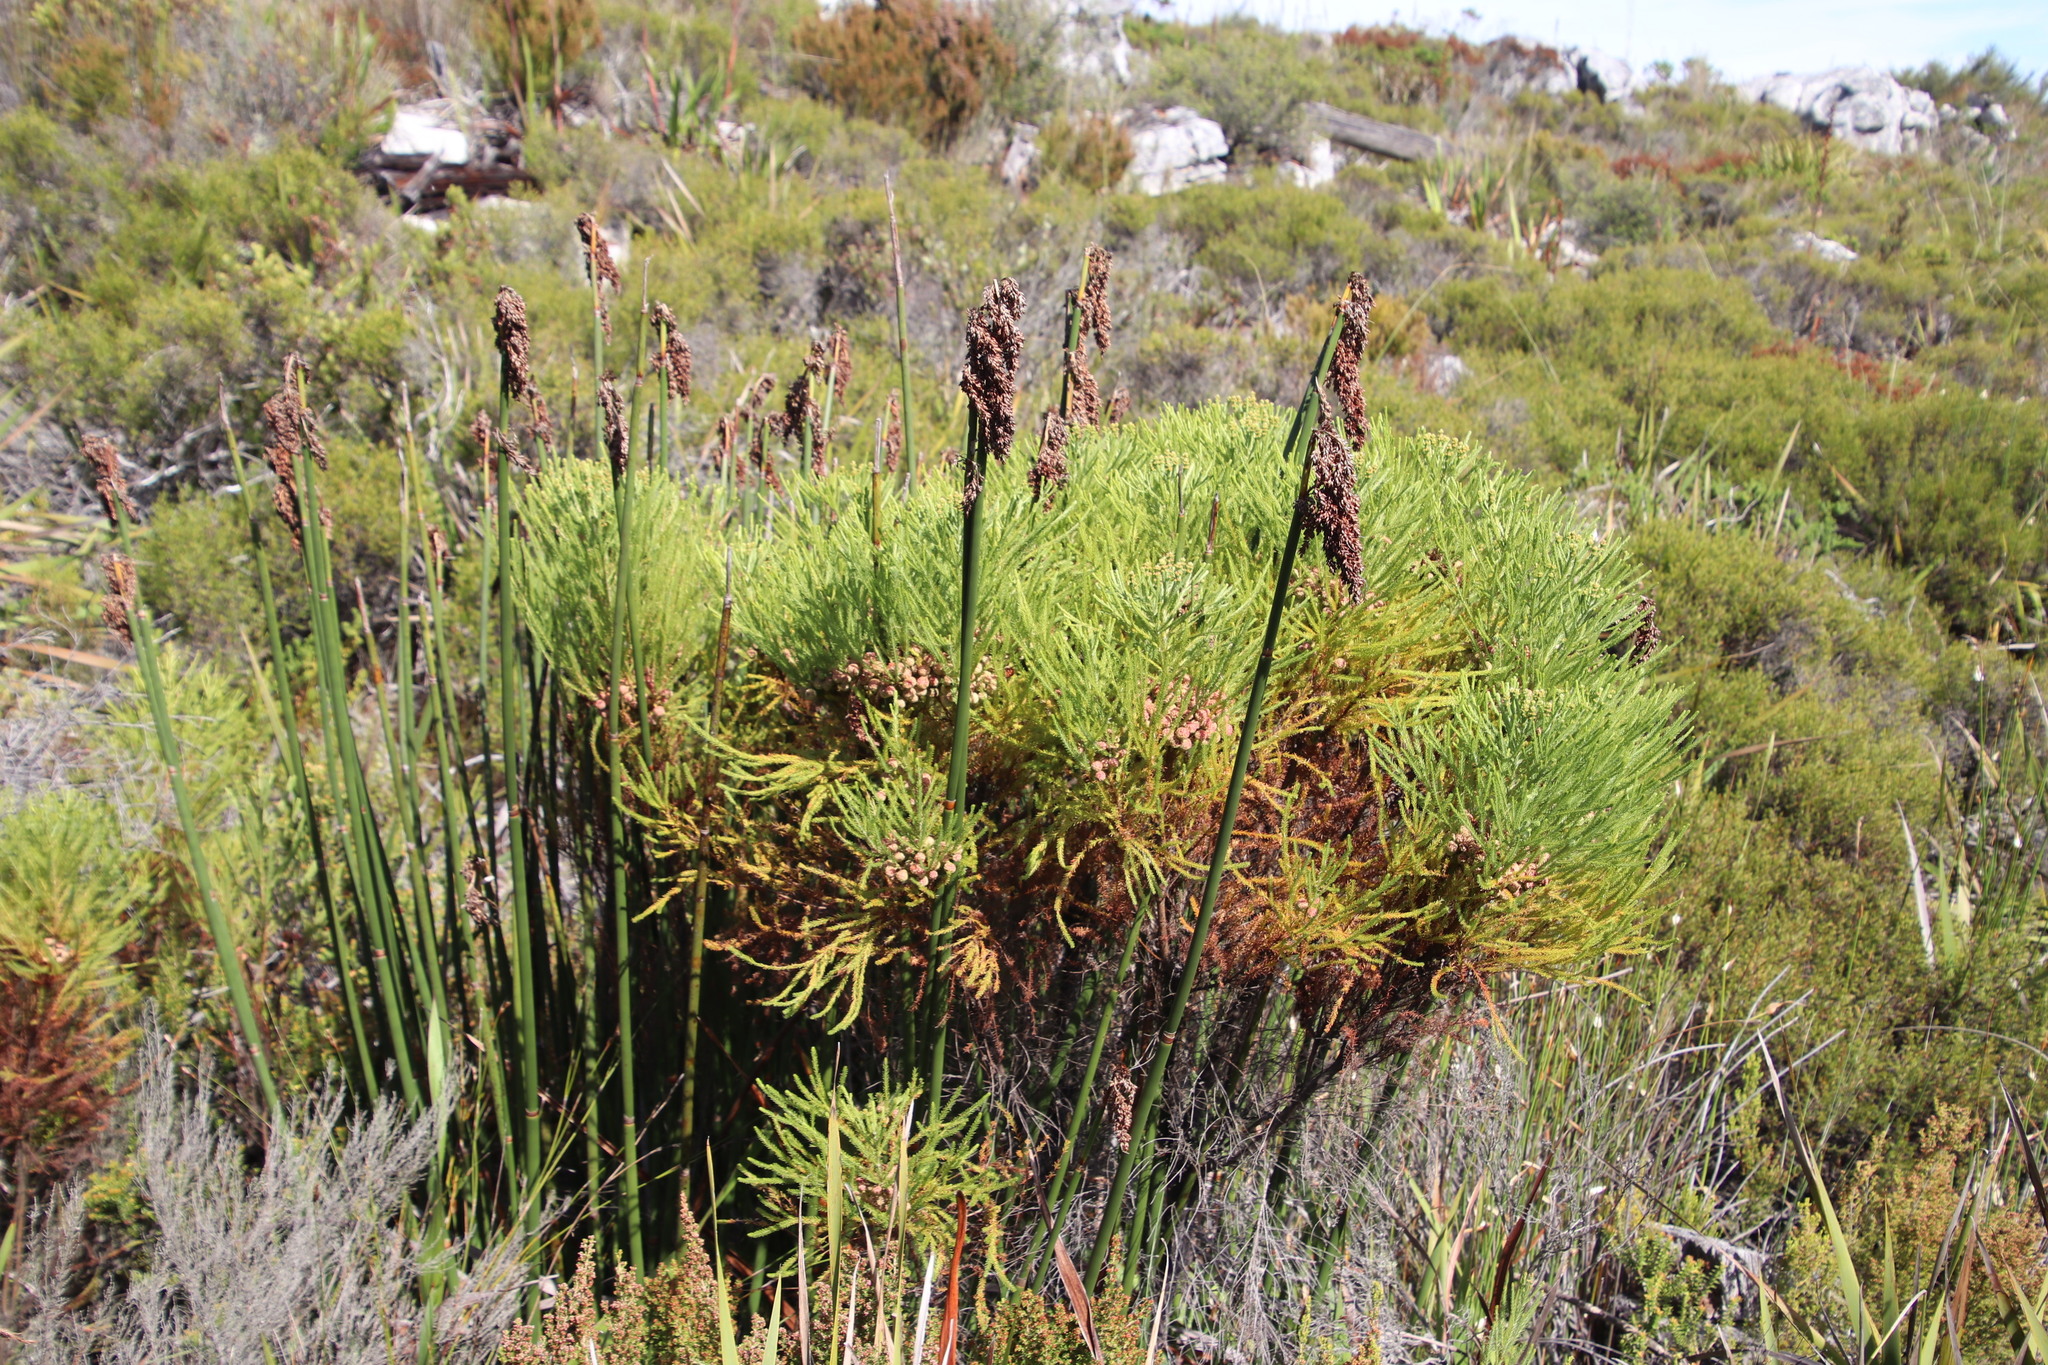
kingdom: Plantae
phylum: Tracheophyta
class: Liliopsida
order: Poales
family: Restionaceae
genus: Elegia
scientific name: Elegia mucronata
